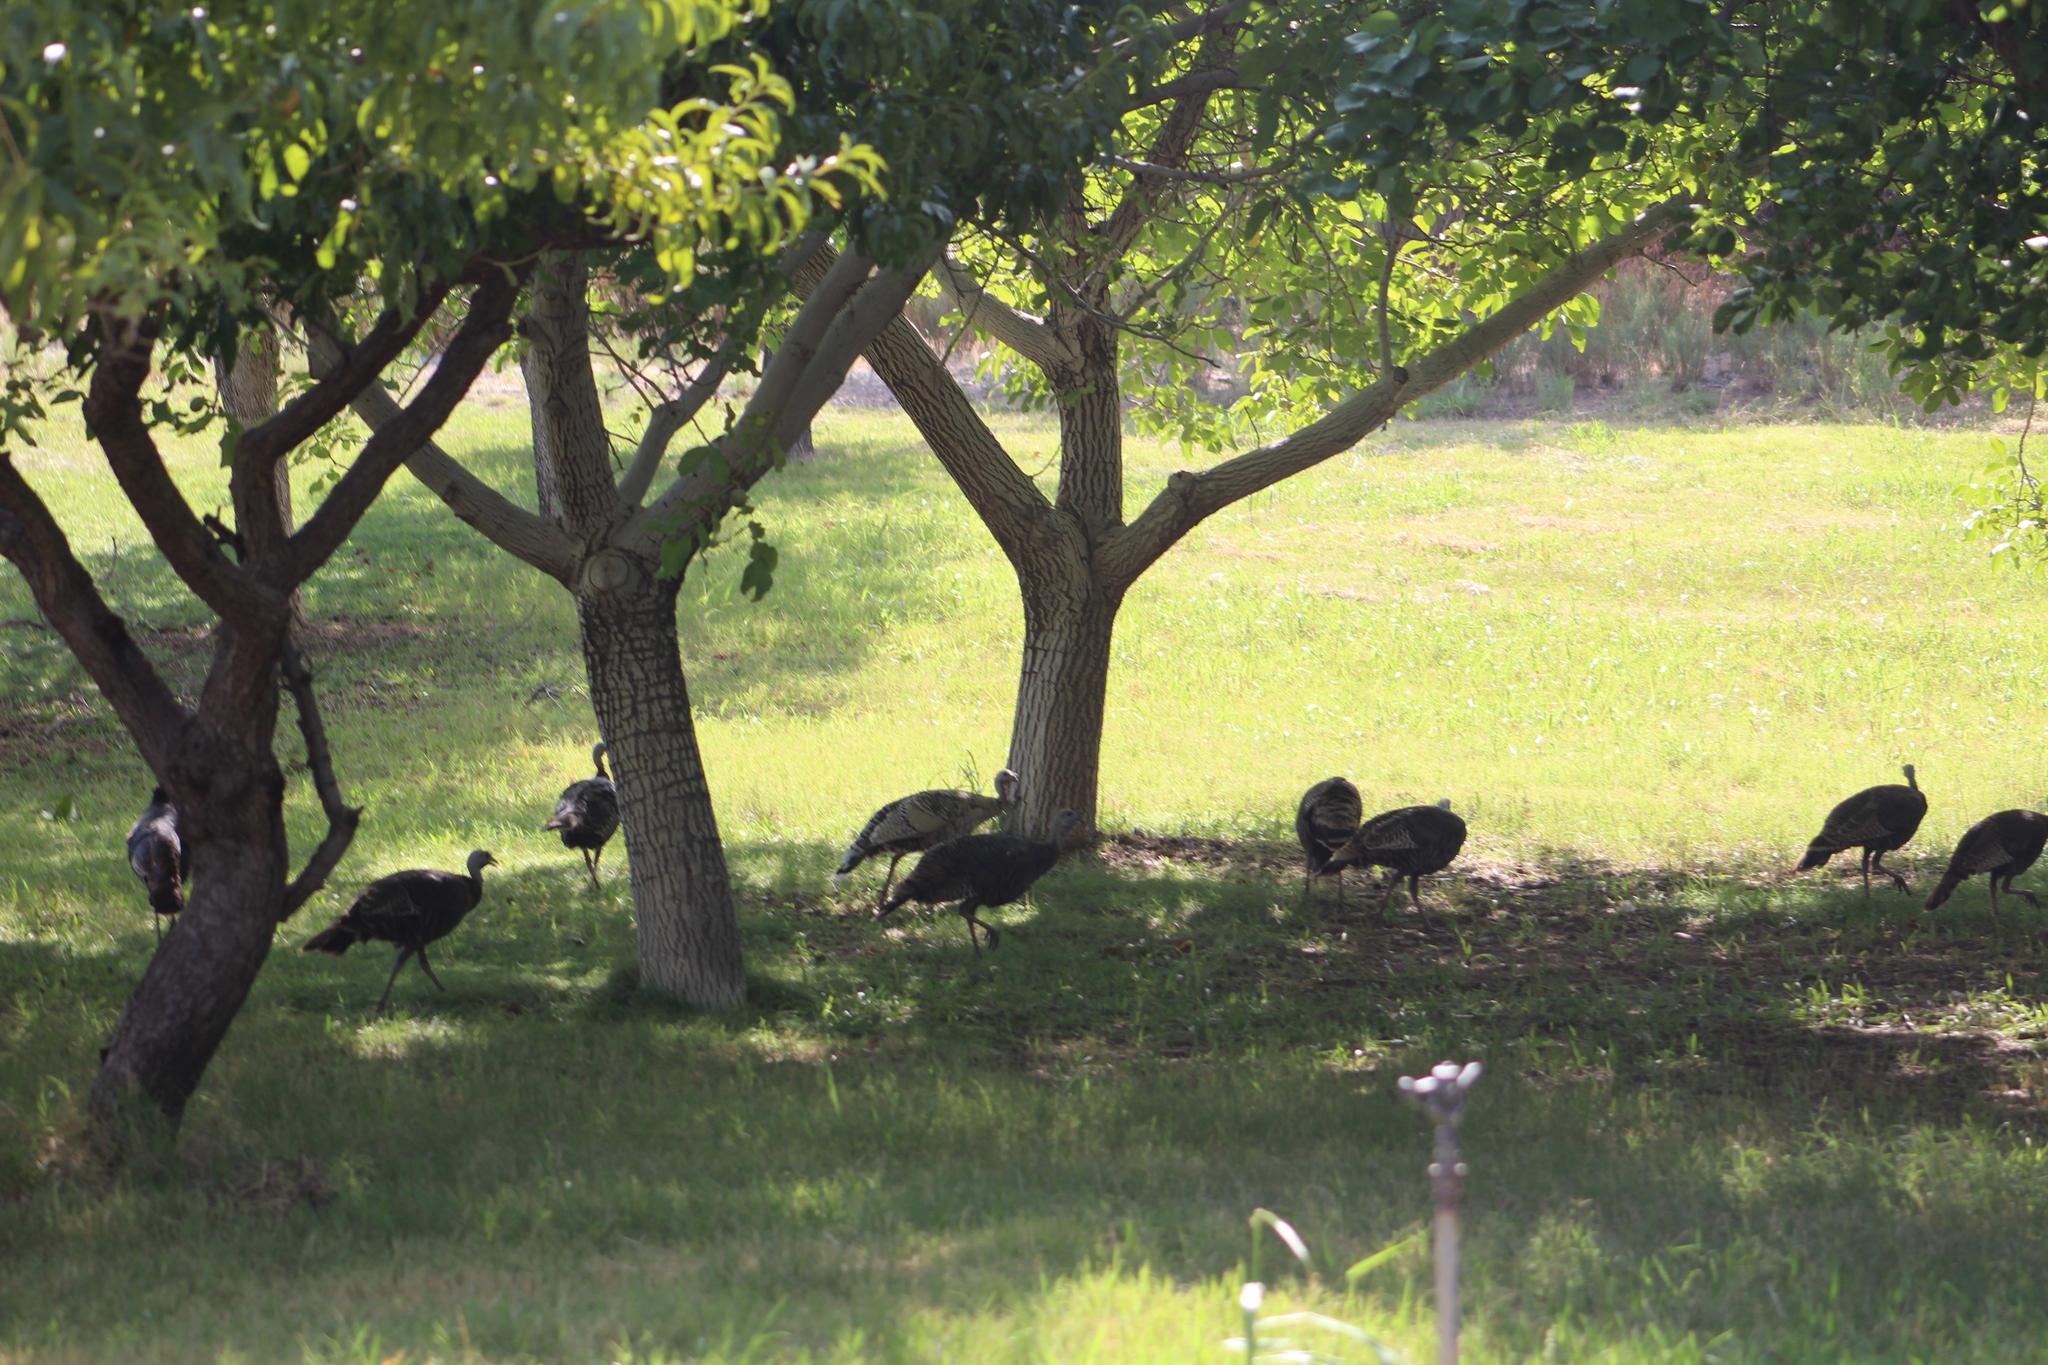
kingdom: Animalia
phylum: Chordata
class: Aves
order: Galliformes
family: Phasianidae
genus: Meleagris
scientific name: Meleagris gallopavo
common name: Wild turkey
